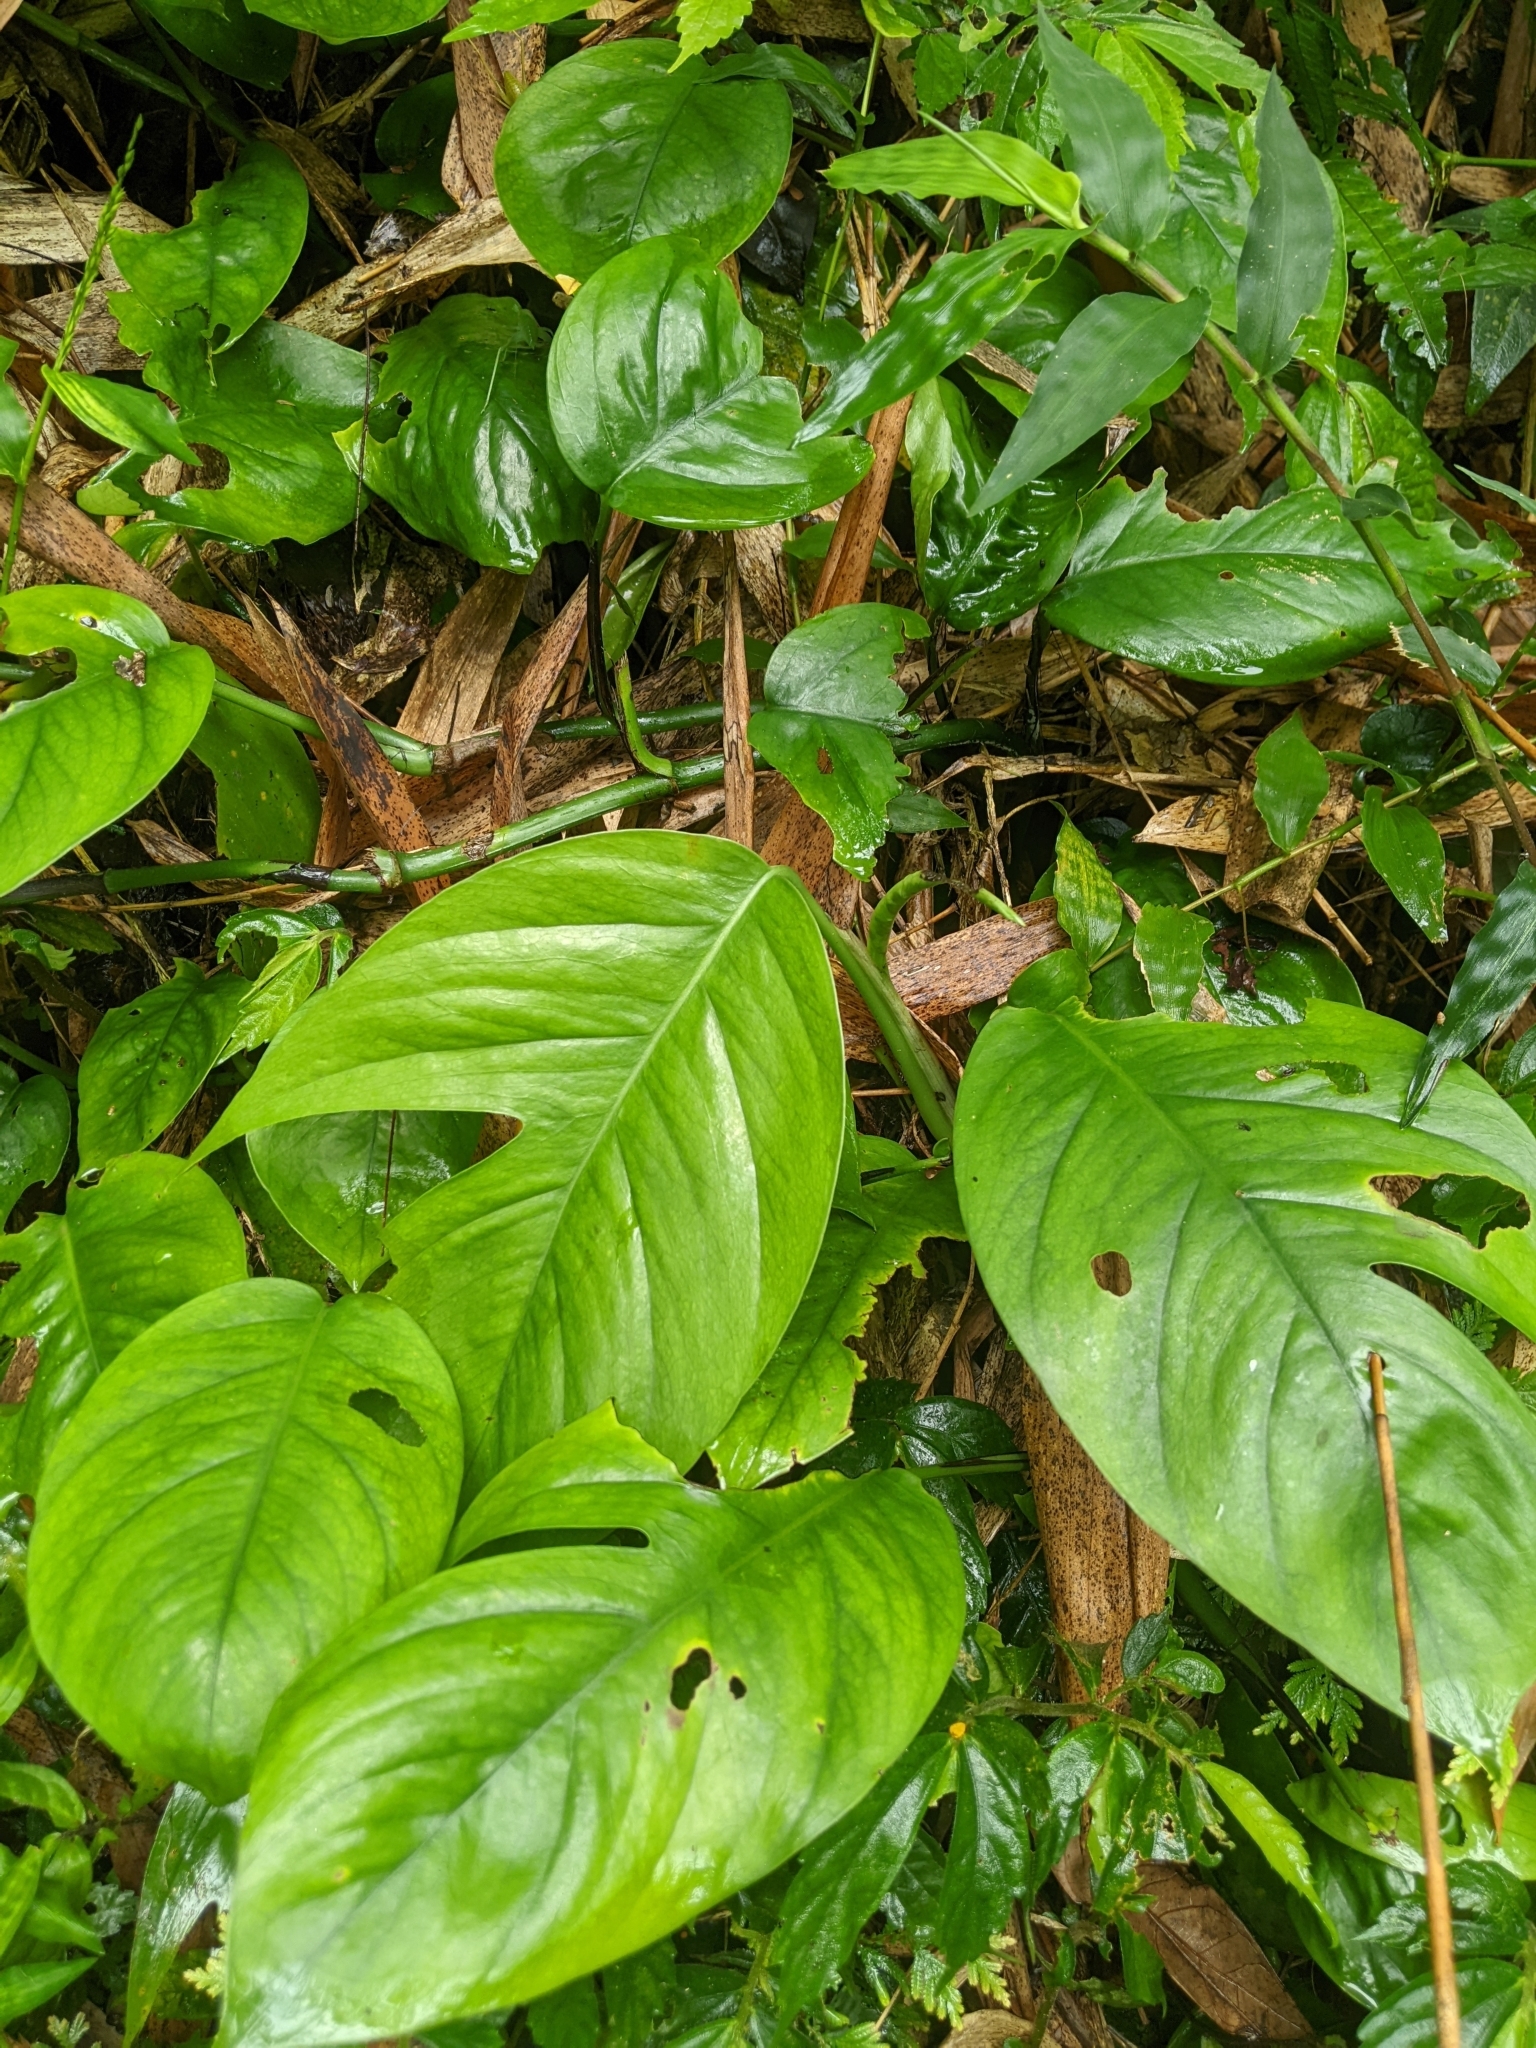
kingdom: Plantae
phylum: Tracheophyta
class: Liliopsida
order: Alismatales
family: Araceae
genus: Epipremnum
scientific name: Epipremnum pinnatum
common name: Centipede tongavine
